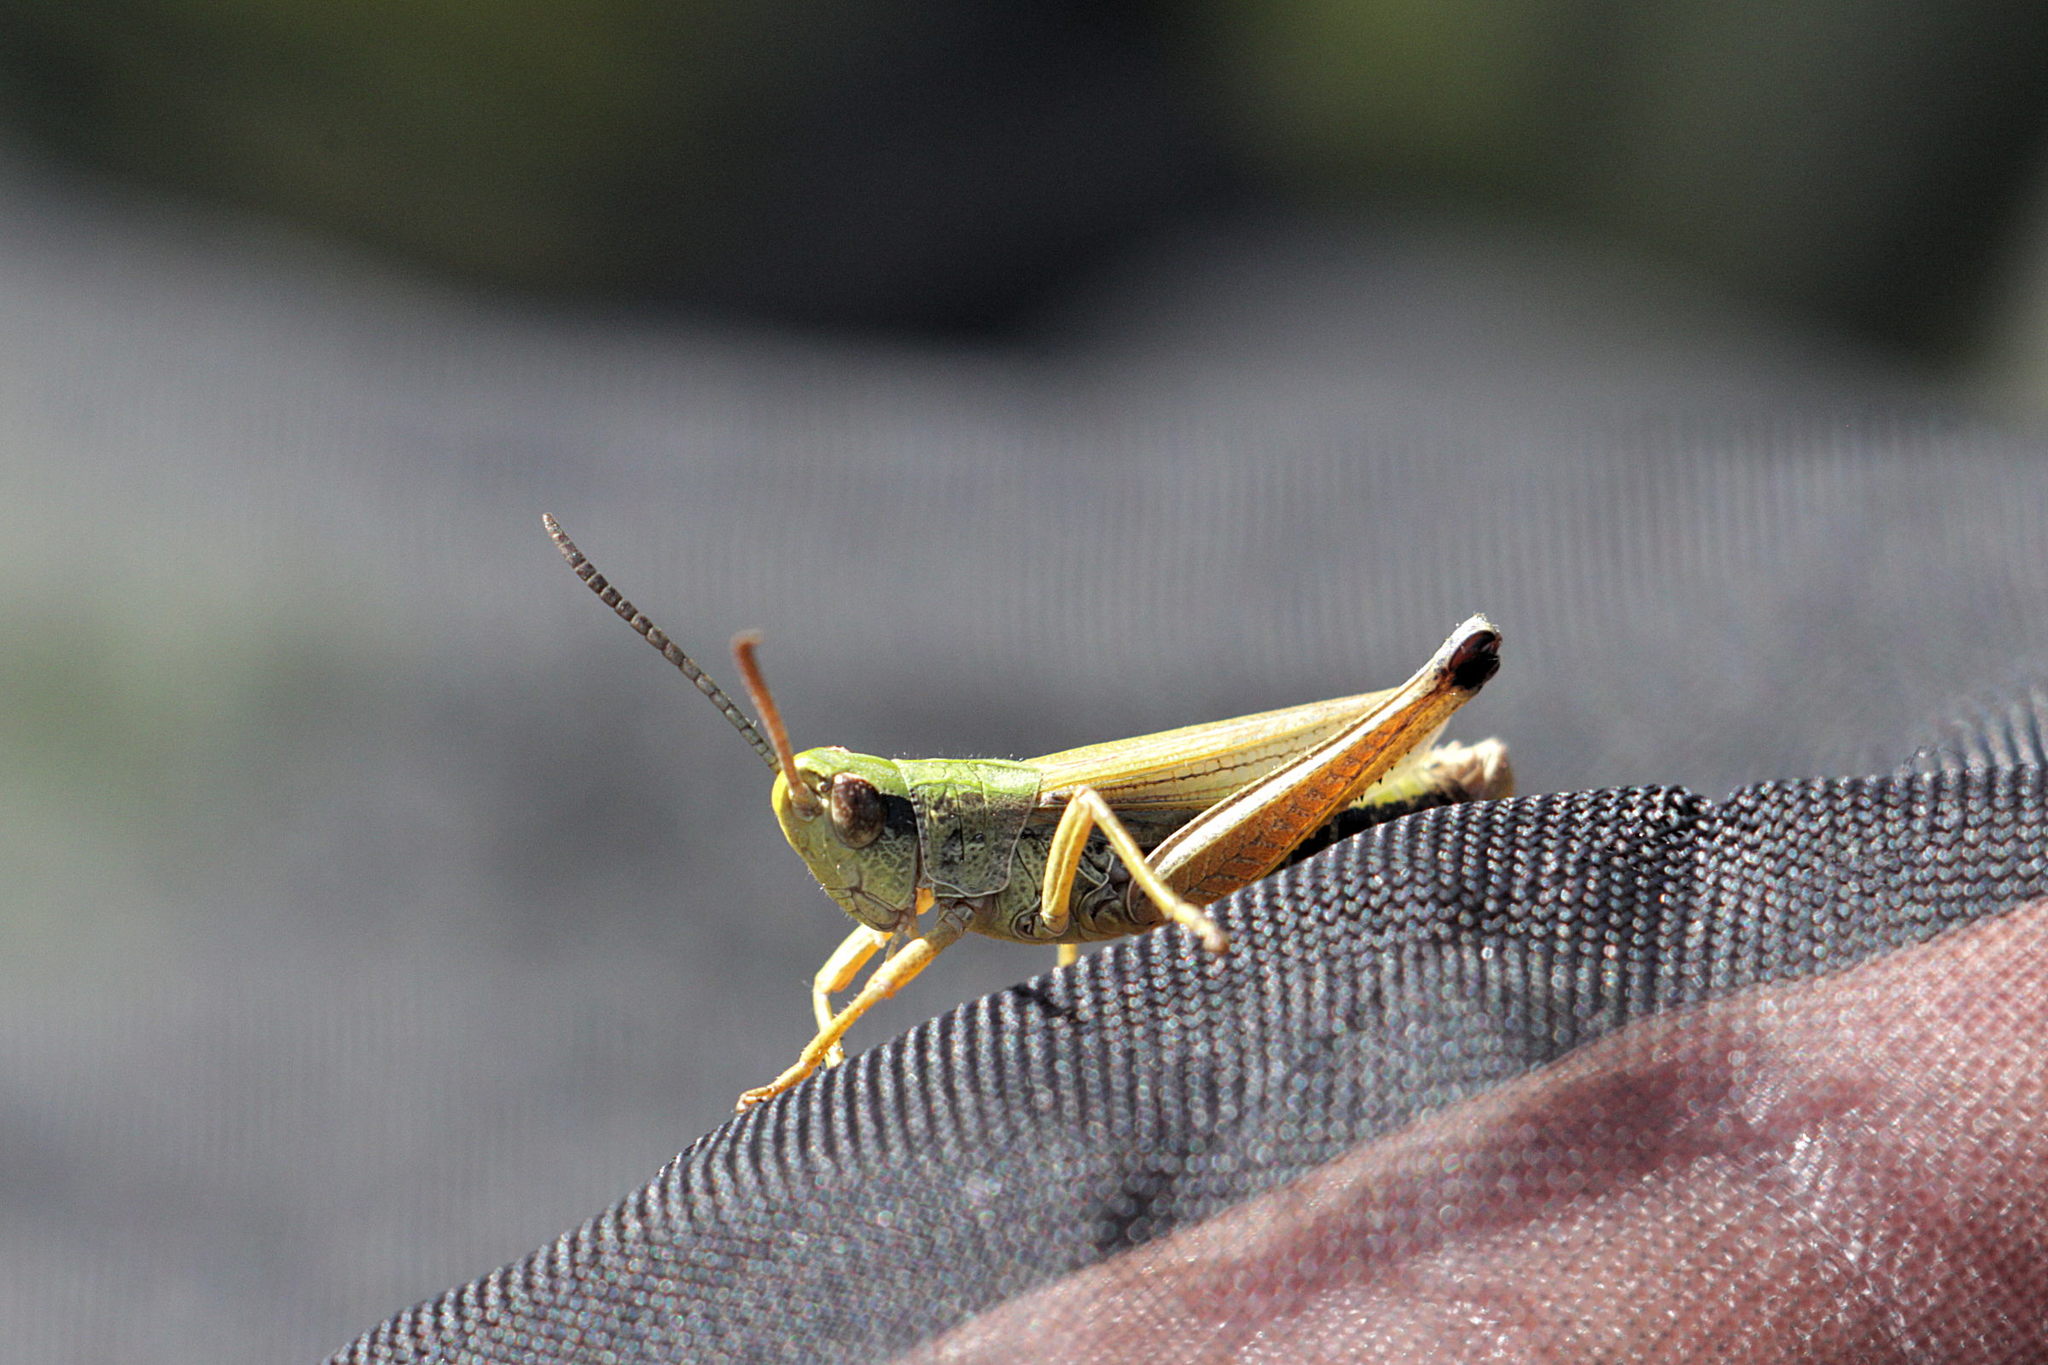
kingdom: Animalia
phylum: Arthropoda
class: Insecta
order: Orthoptera
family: Acrididae
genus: Pseudochorthippus
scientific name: Pseudochorthippus parallelus
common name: Meadow grasshopper
